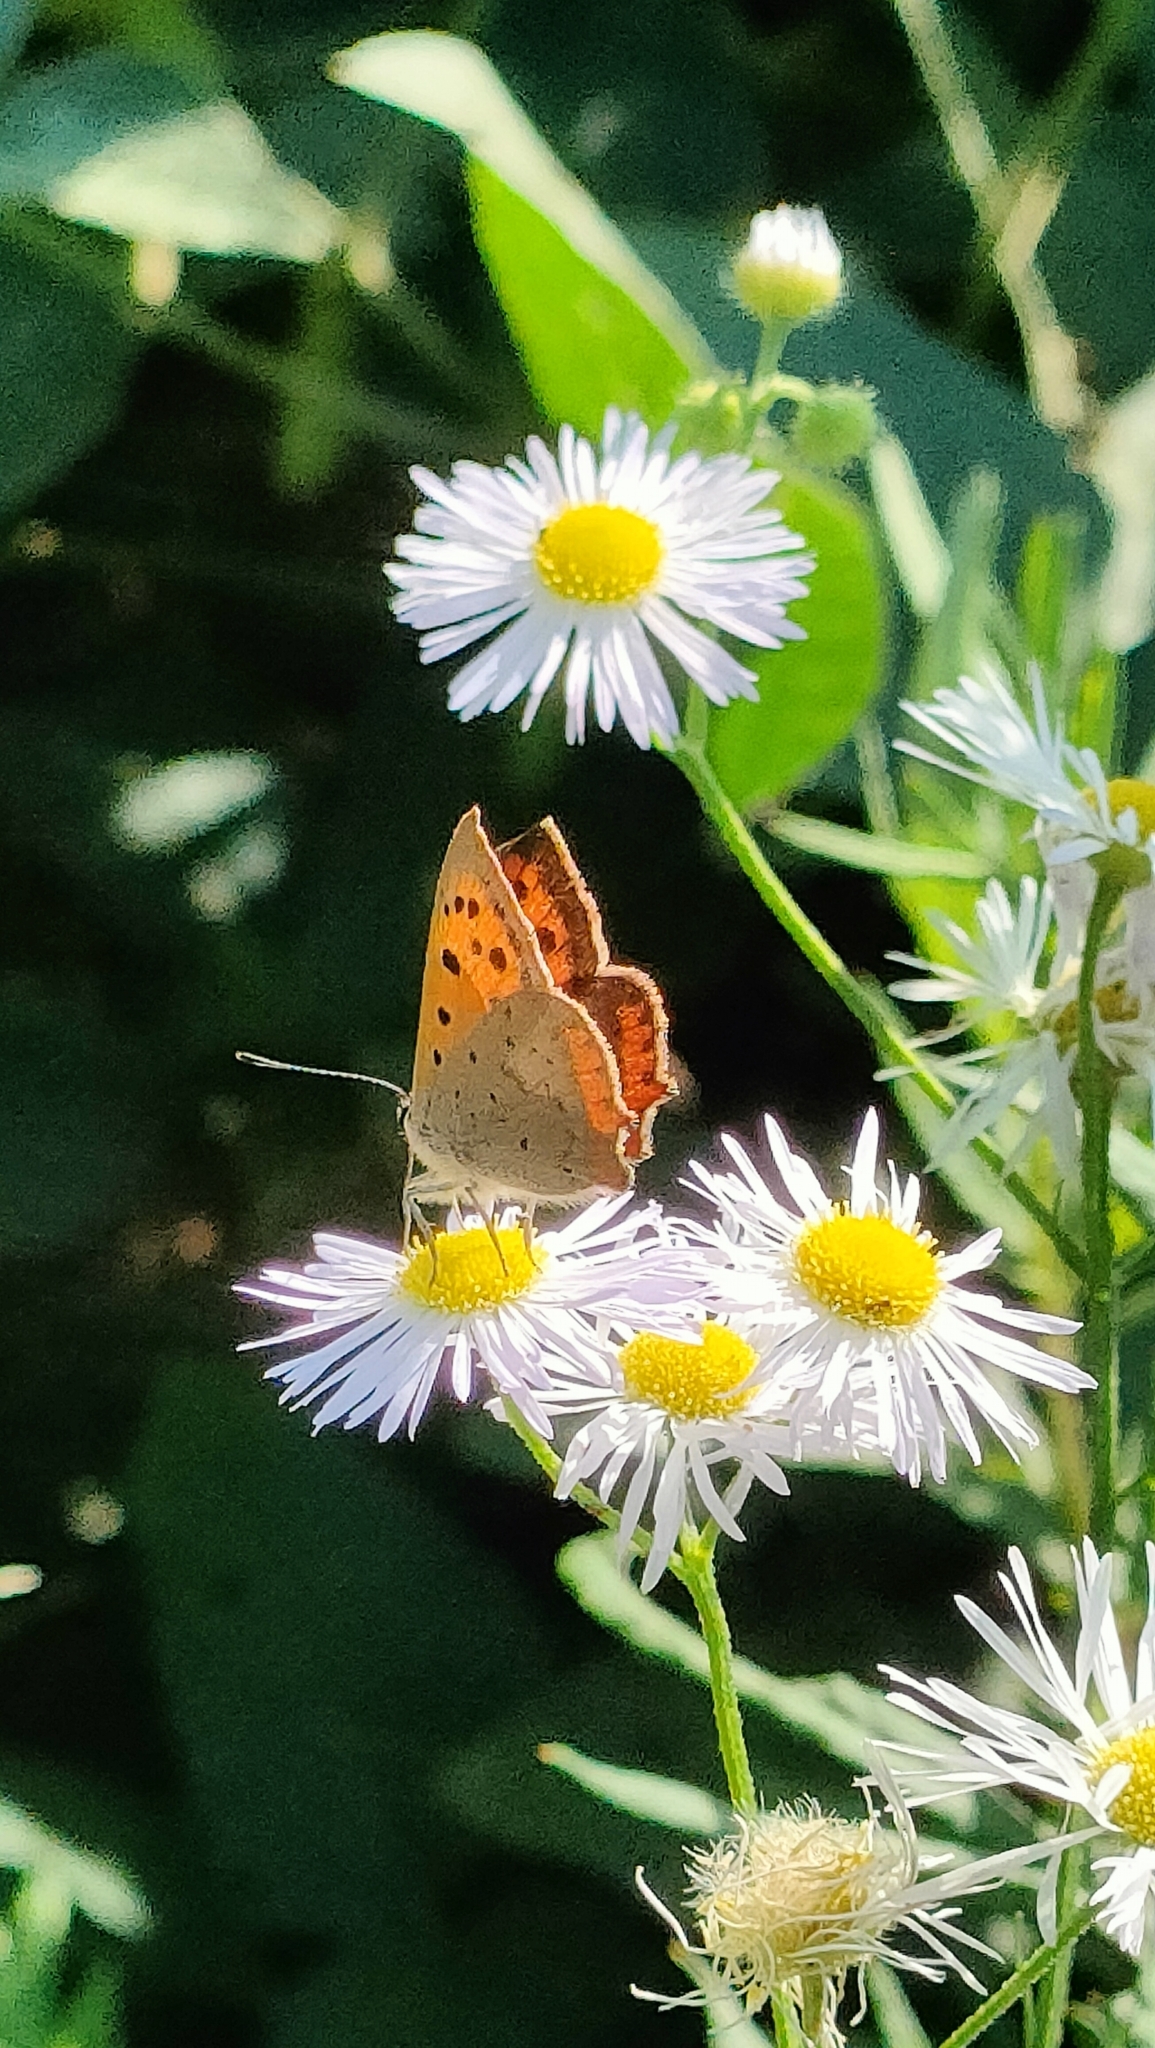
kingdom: Animalia
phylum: Arthropoda
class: Insecta
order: Lepidoptera
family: Lycaenidae
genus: Lycaena
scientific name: Lycaena phlaeas
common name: Small copper
